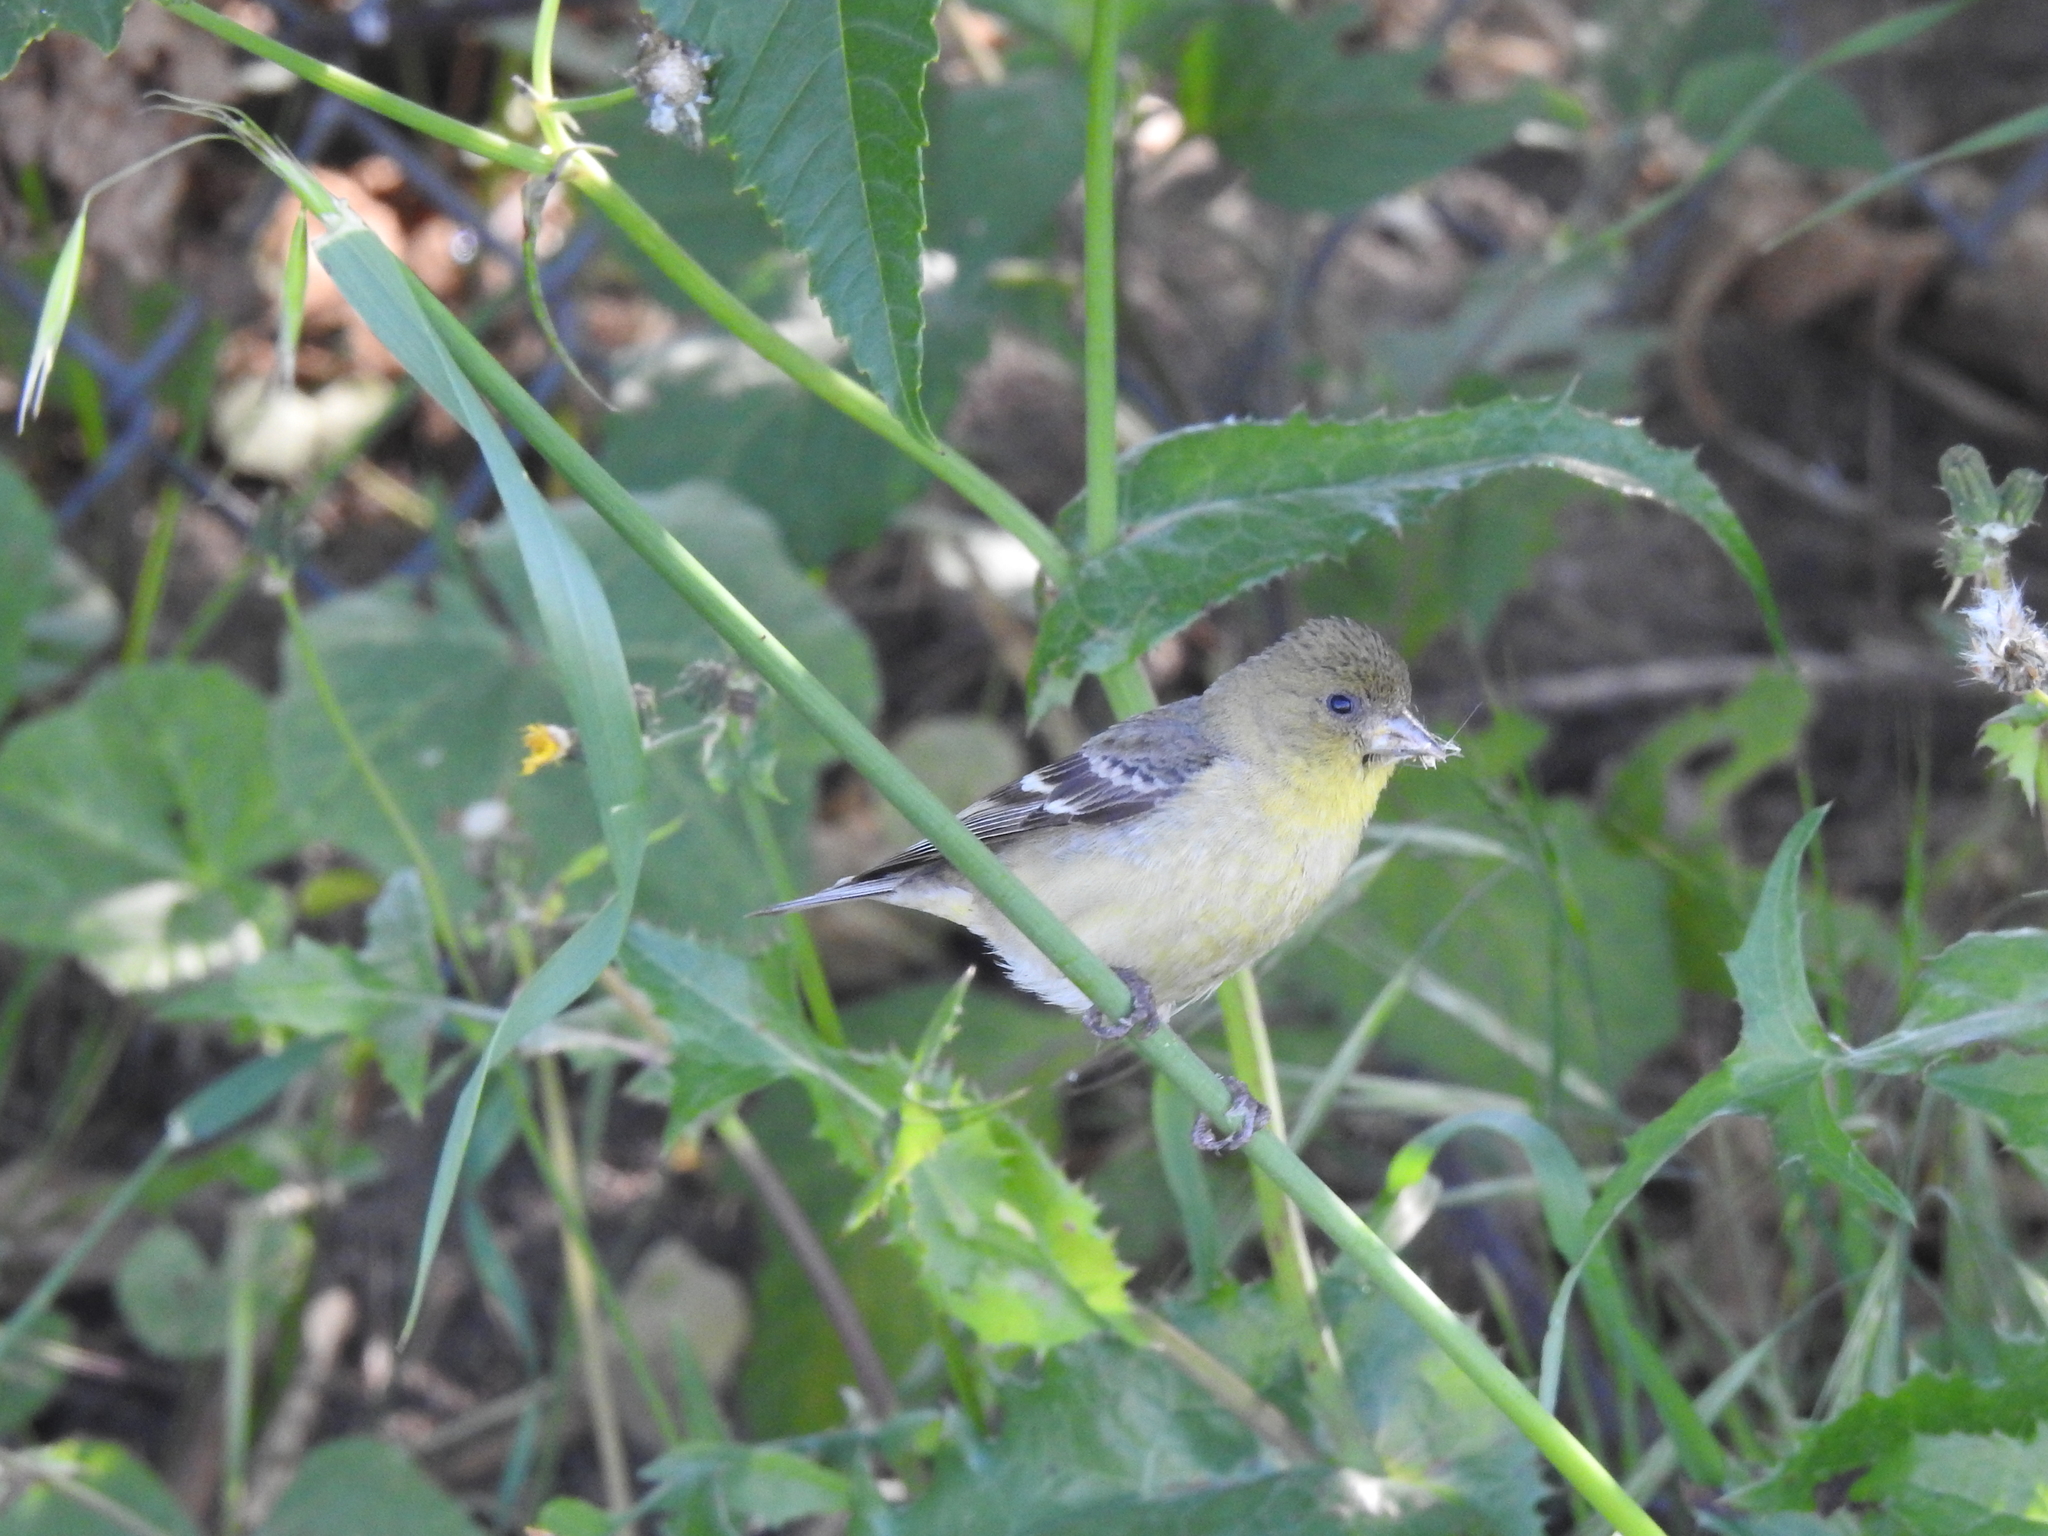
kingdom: Animalia
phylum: Chordata
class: Aves
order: Passeriformes
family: Fringillidae
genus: Spinus
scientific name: Spinus psaltria
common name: Lesser goldfinch
